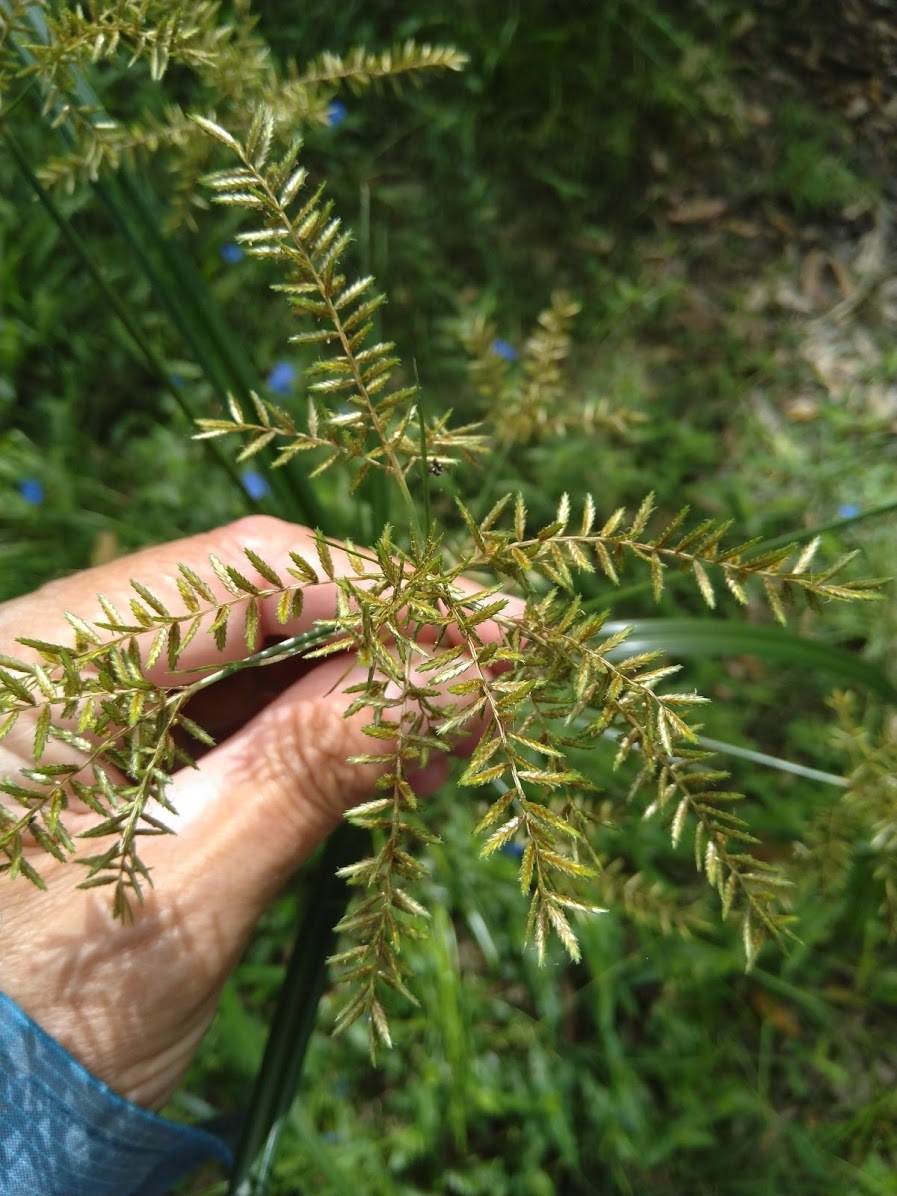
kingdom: Plantae
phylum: Tracheophyta
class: Liliopsida
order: Poales
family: Cyperaceae
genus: Cyperus
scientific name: Cyperus exaltatus
